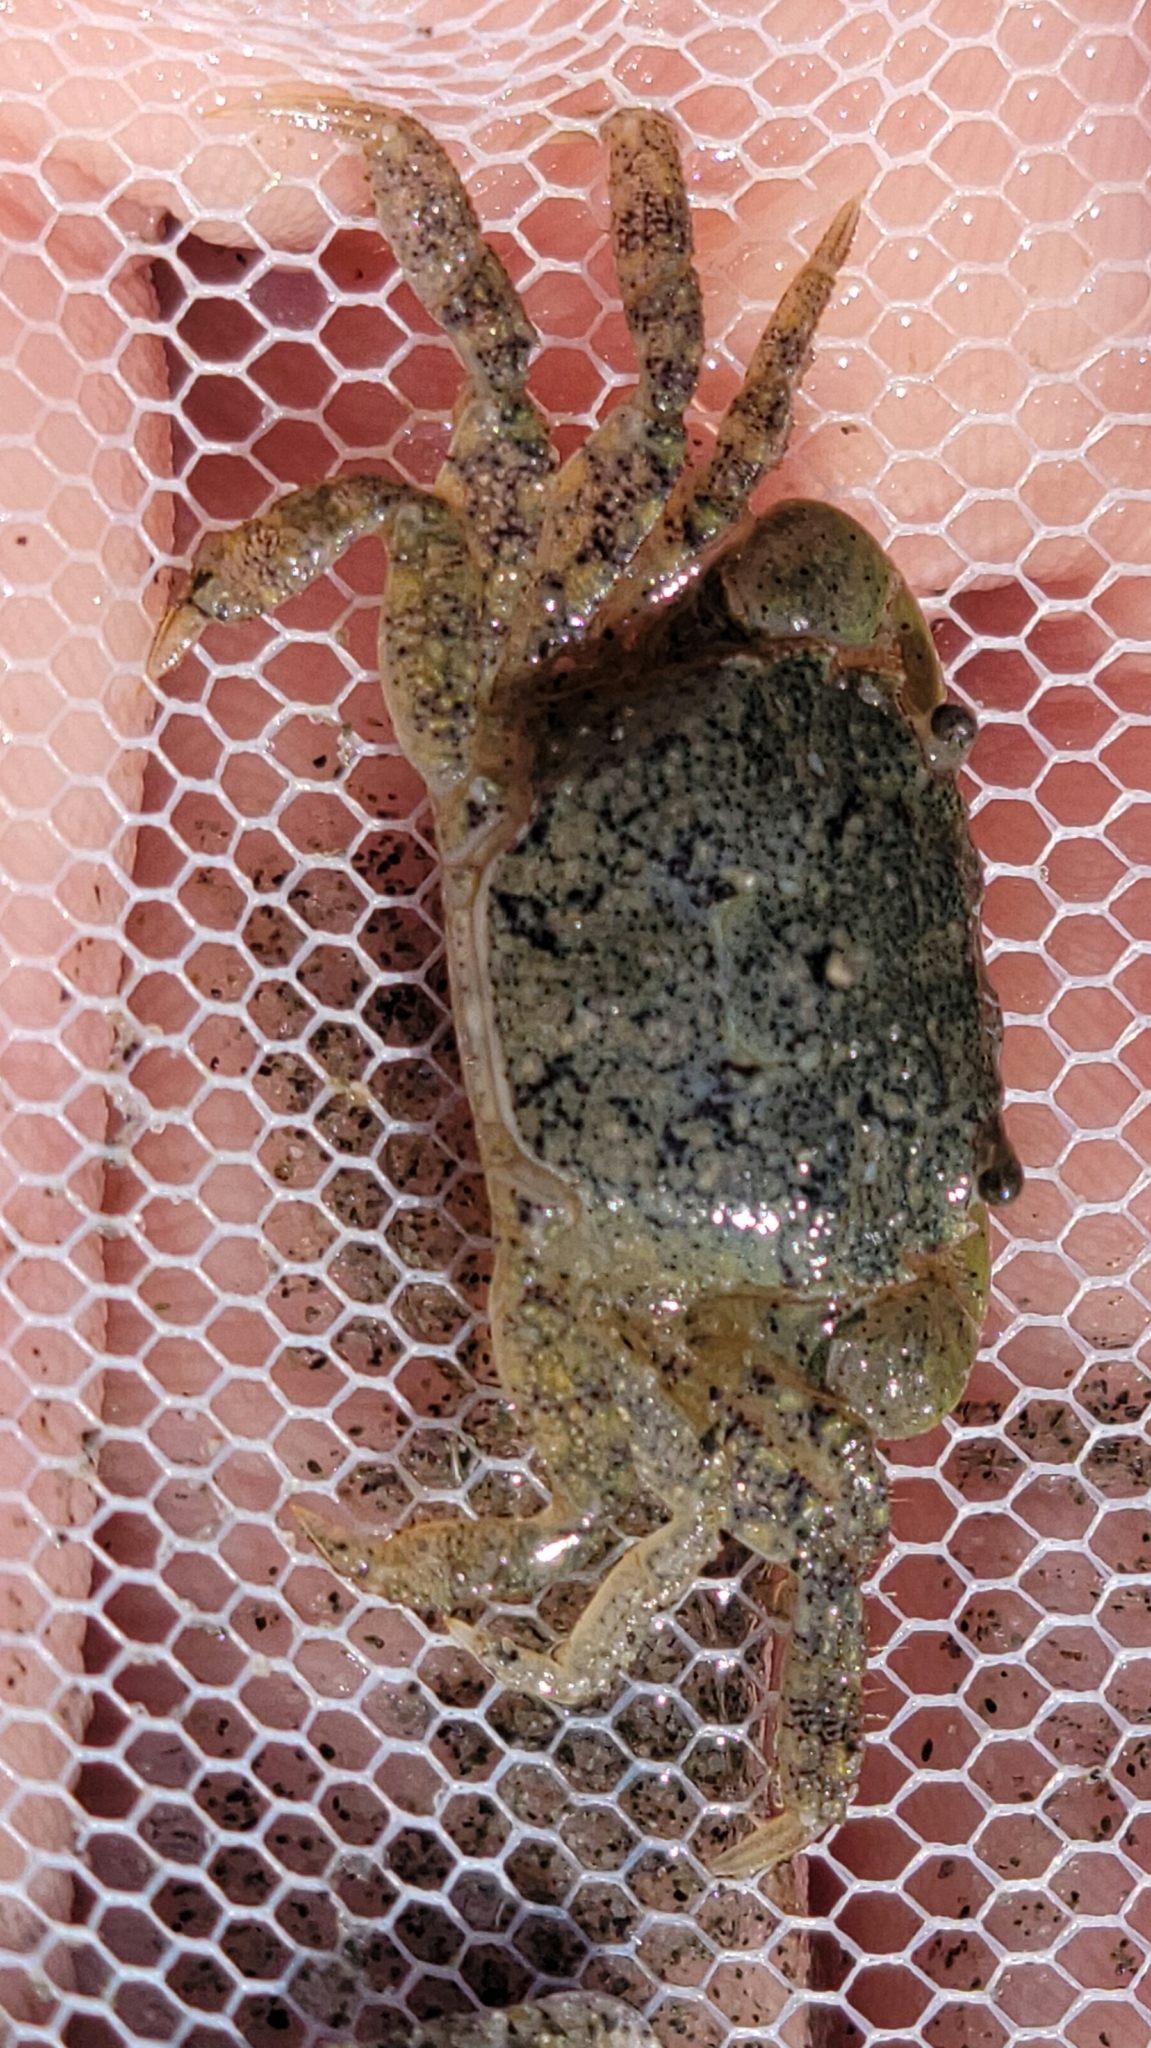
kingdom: Animalia
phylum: Arthropoda
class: Malacostraca
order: Decapoda
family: Varunidae
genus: Hemigrapsus
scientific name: Hemigrapsus oregonensis
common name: Yellow shore crab
